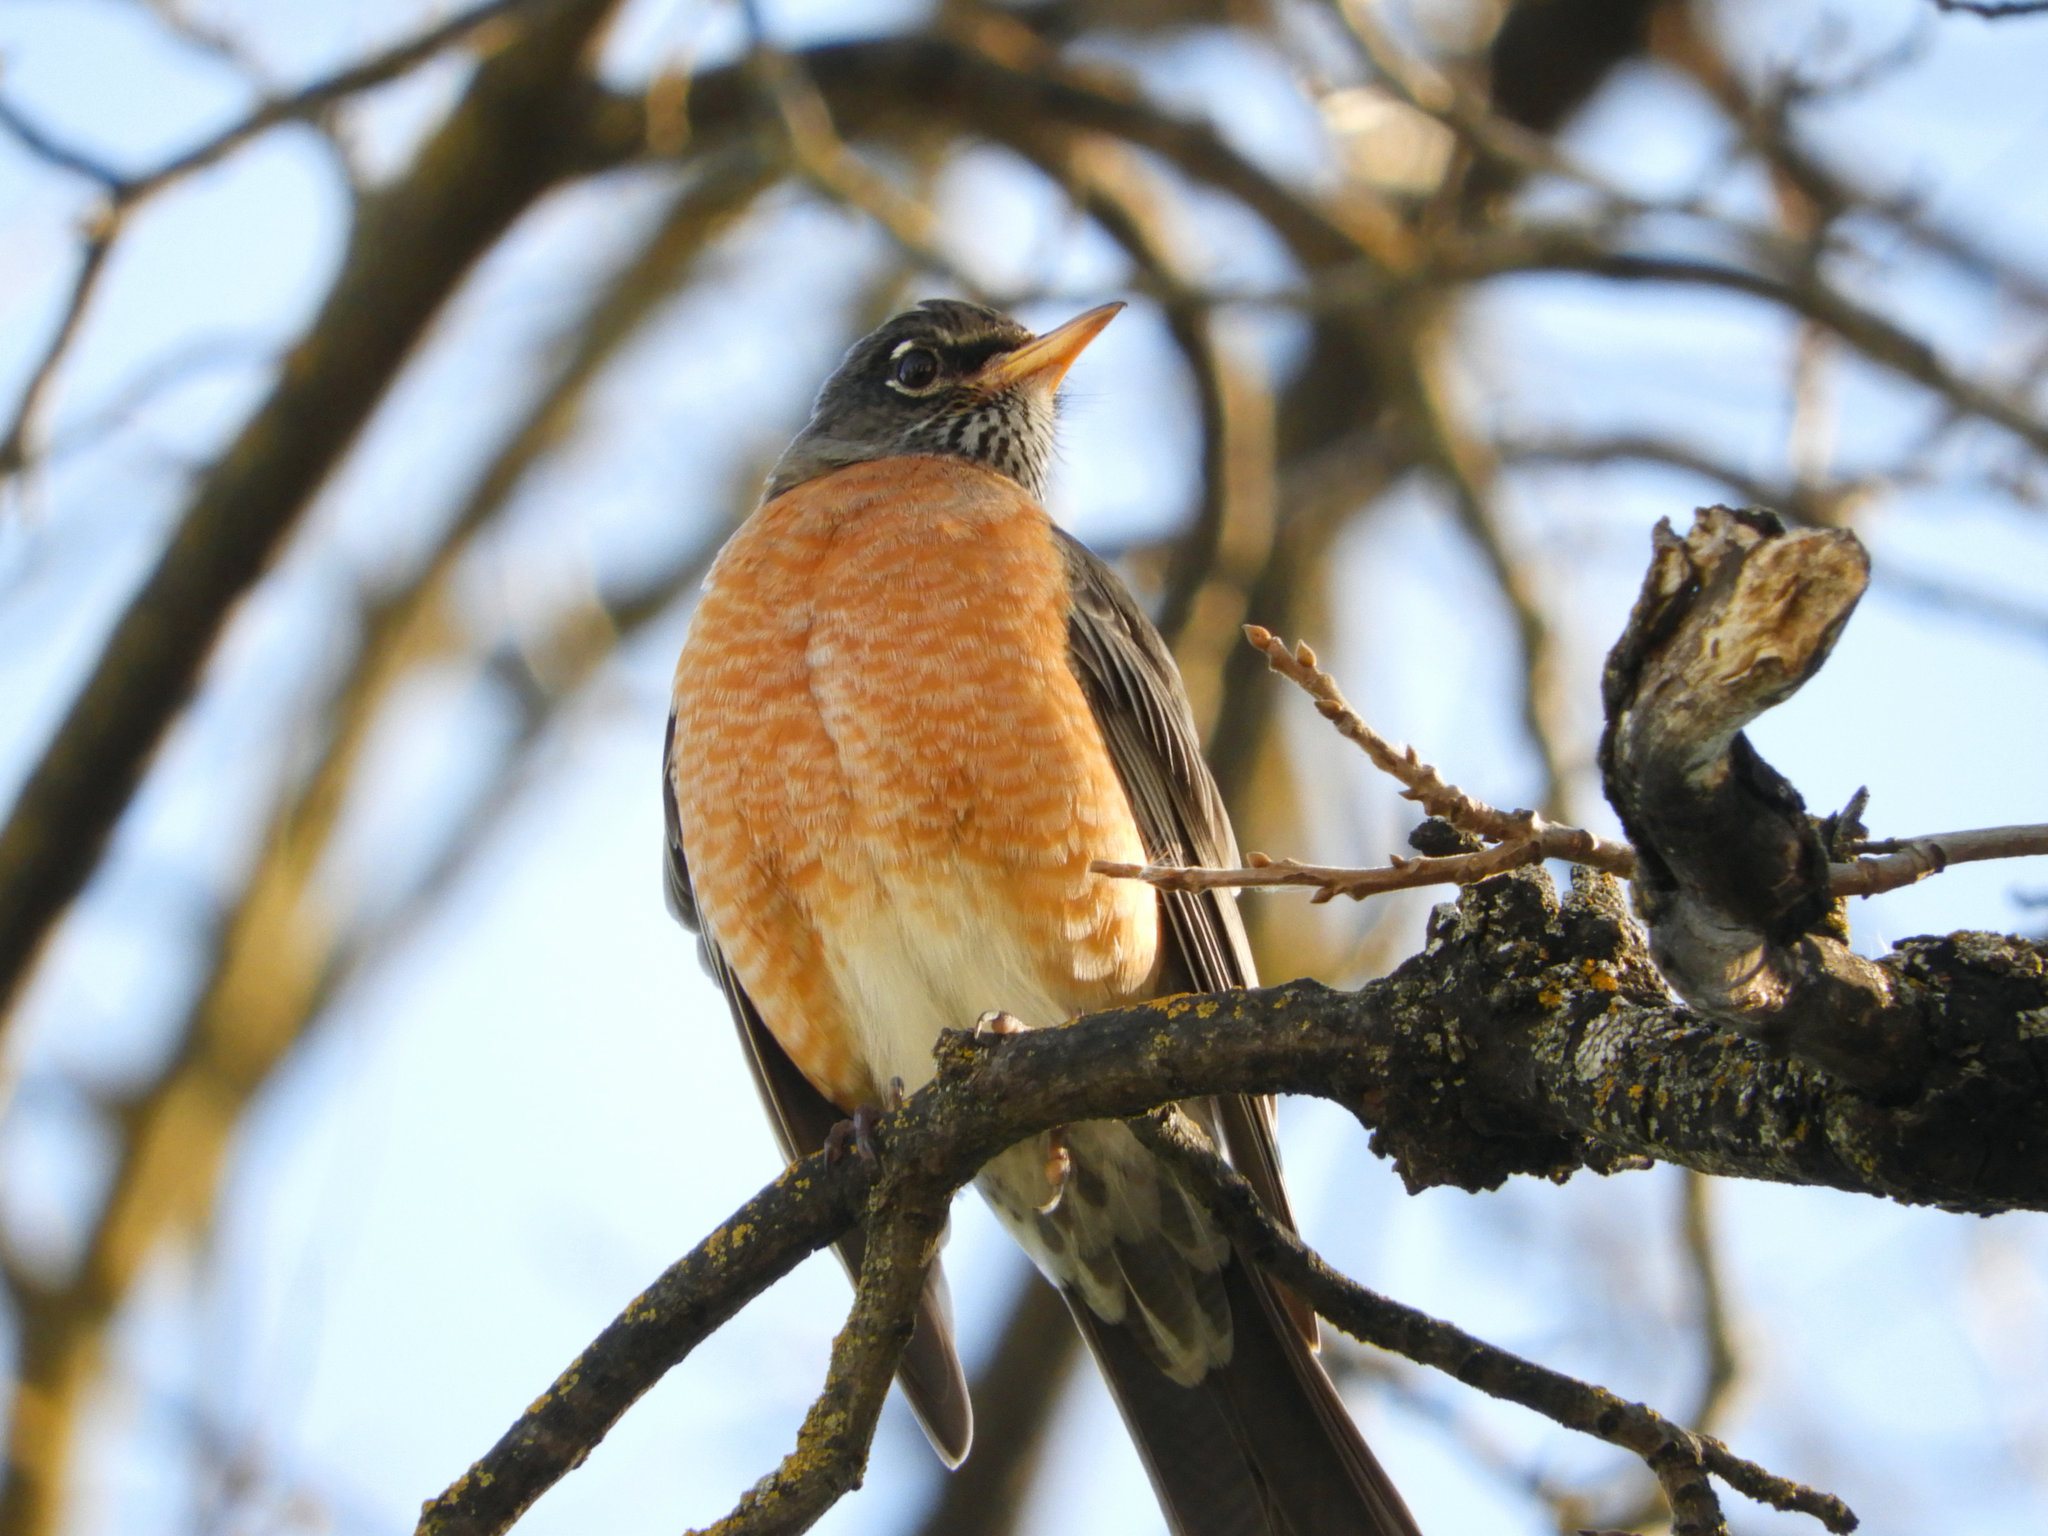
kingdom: Animalia
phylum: Chordata
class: Aves
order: Passeriformes
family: Turdidae
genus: Turdus
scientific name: Turdus migratorius
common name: American robin
